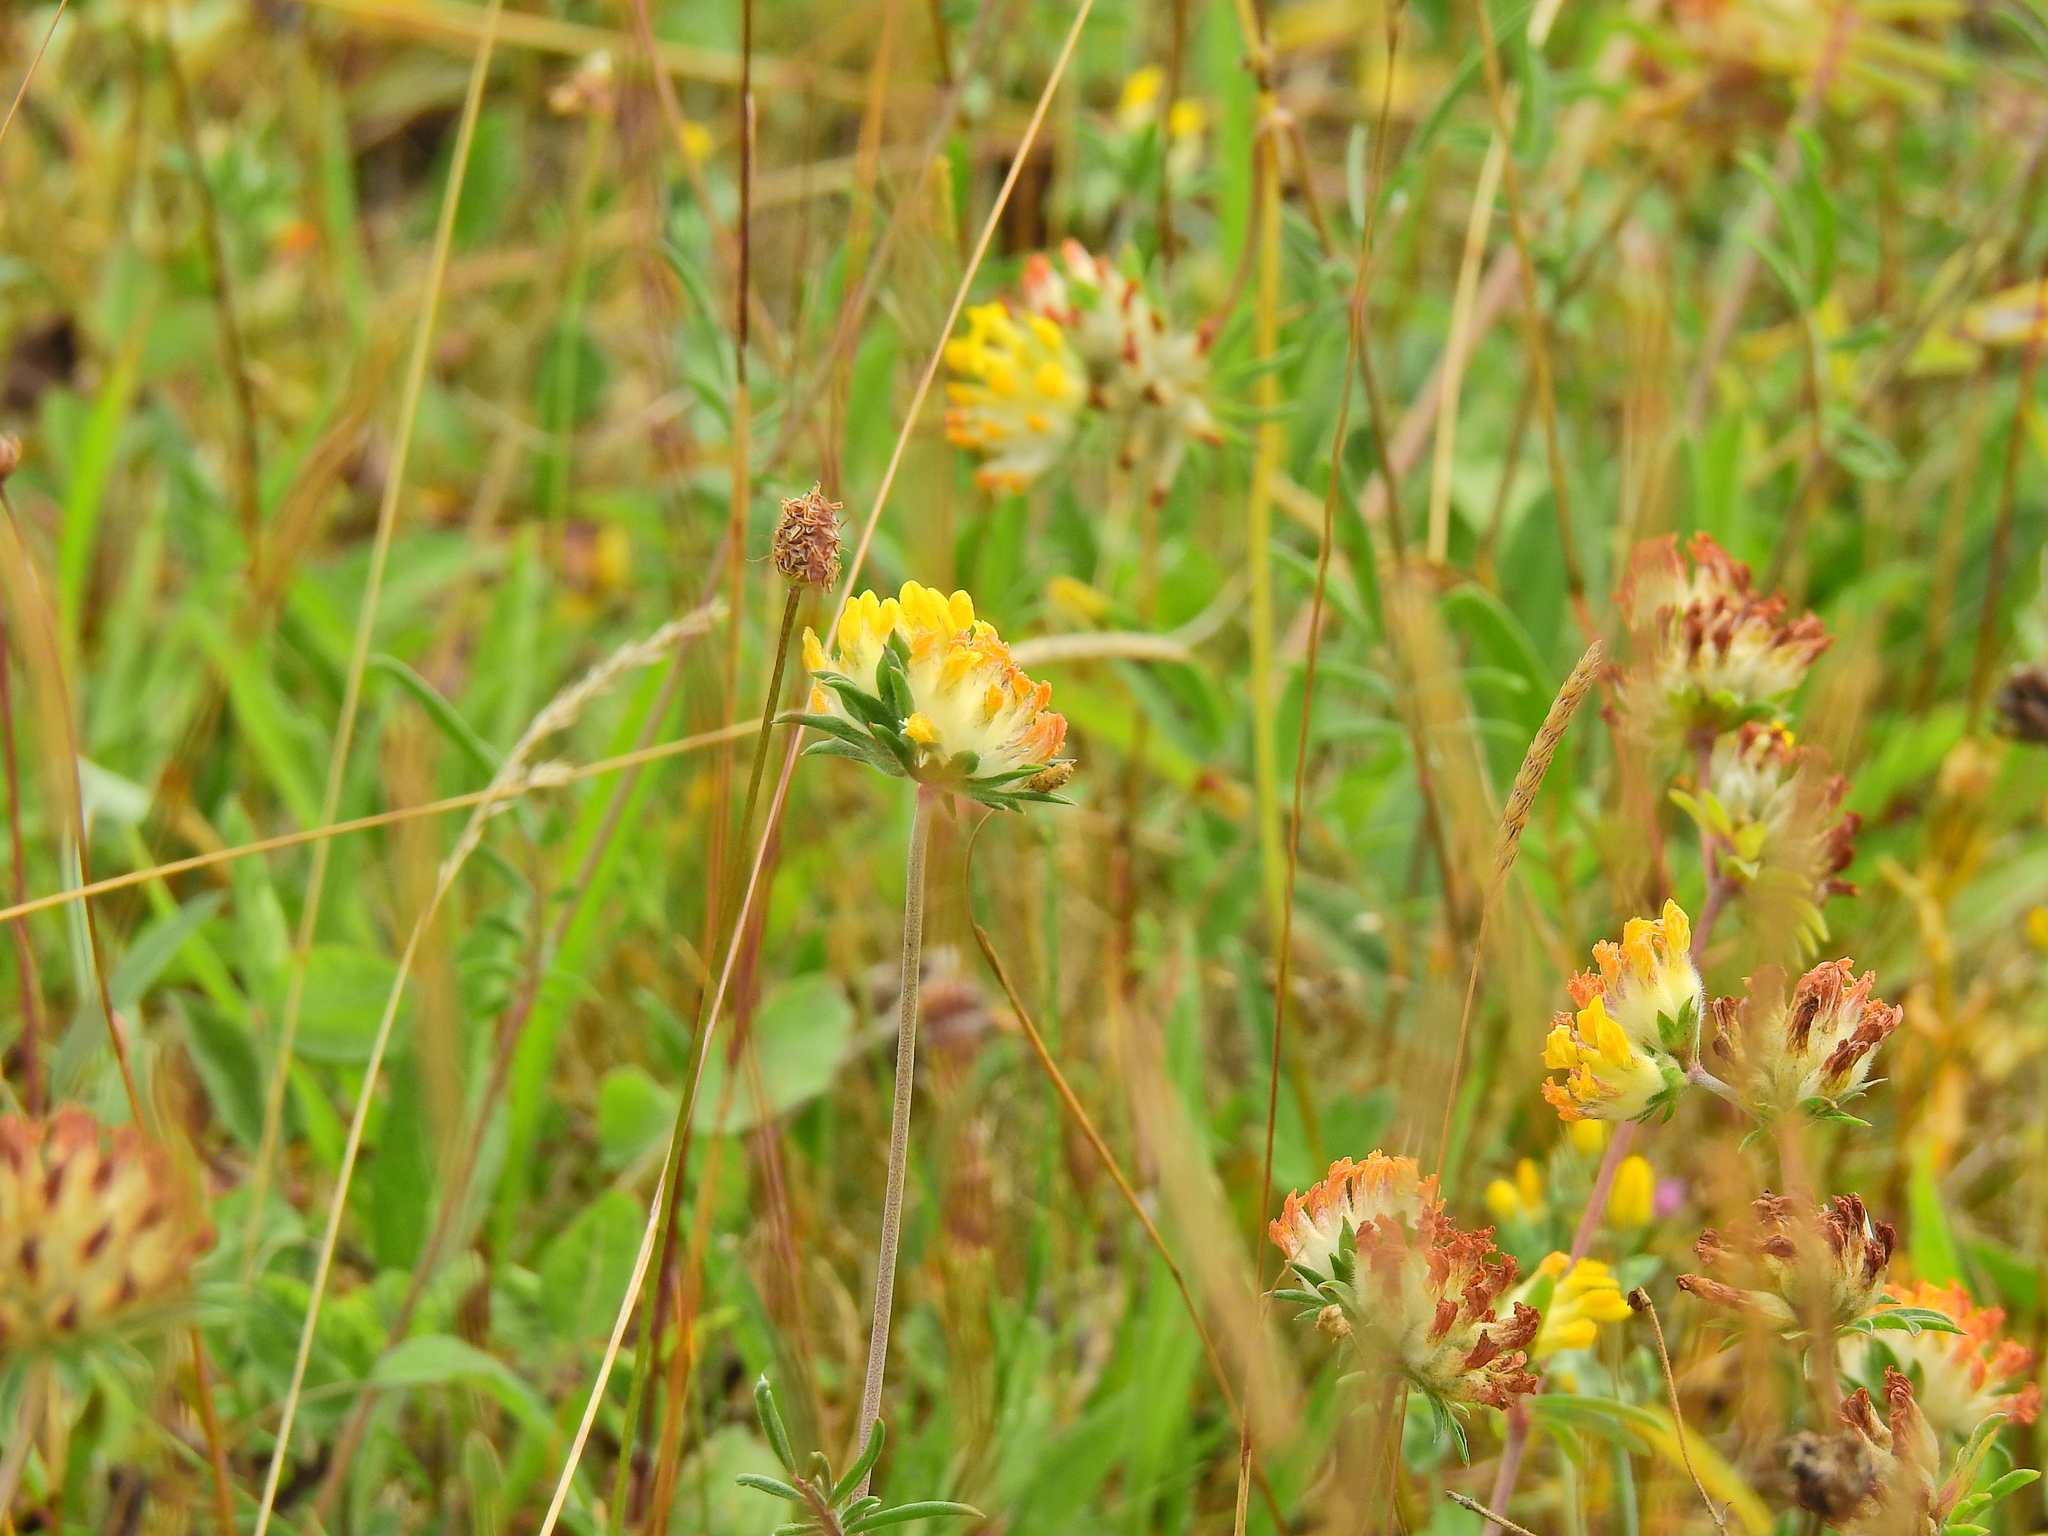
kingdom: Plantae
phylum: Tracheophyta
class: Magnoliopsida
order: Fabales
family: Fabaceae
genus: Anthyllis
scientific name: Anthyllis vulneraria
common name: Kidney vetch
